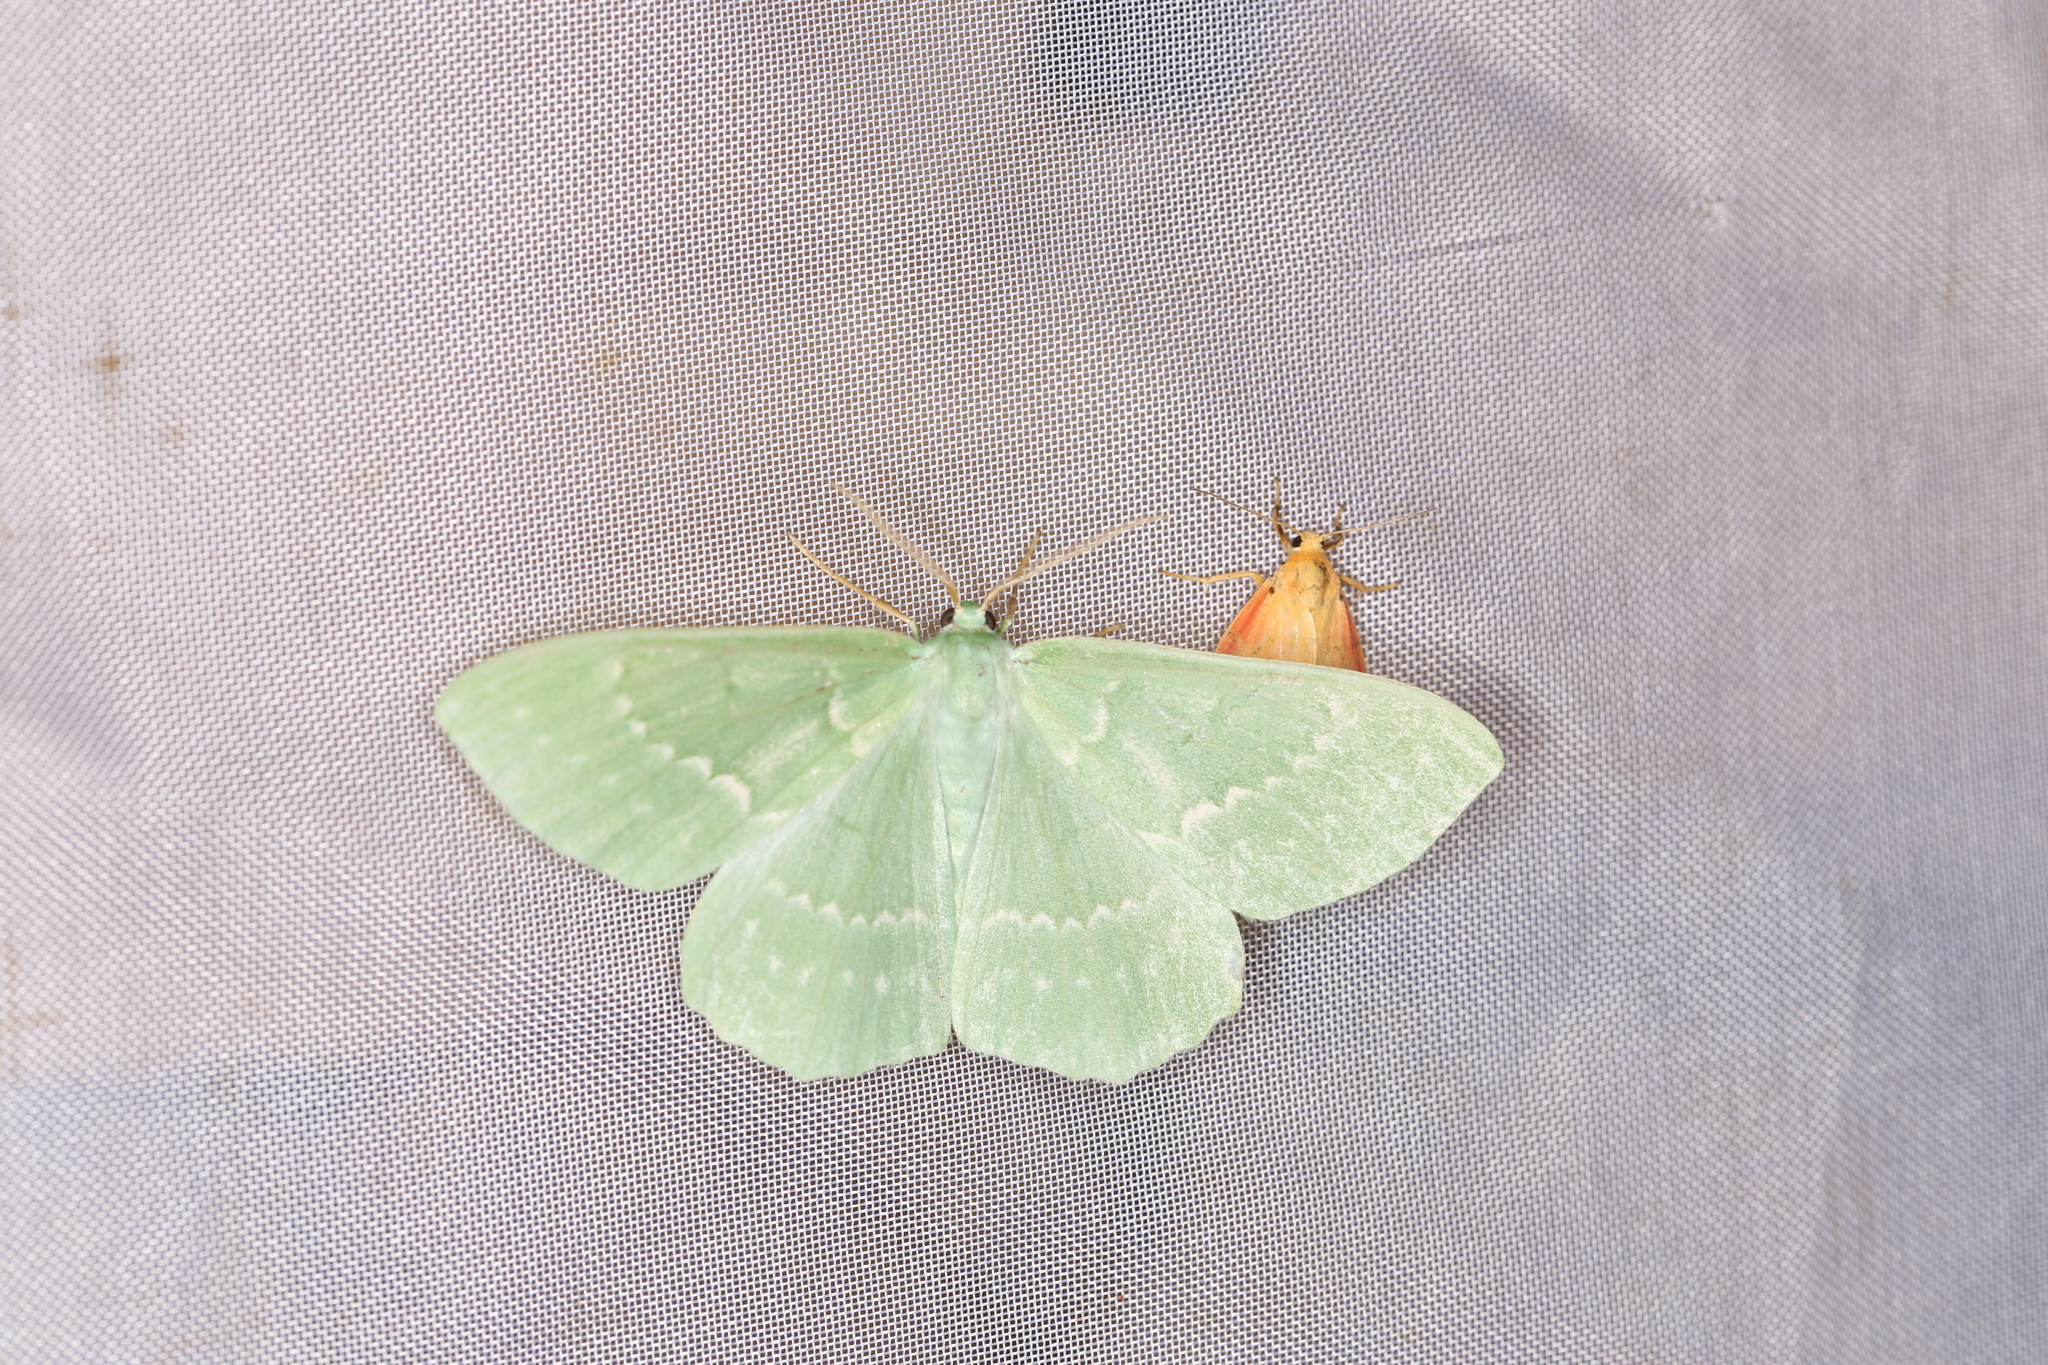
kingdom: Animalia
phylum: Arthropoda
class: Insecta
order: Lepidoptera
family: Geometridae
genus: Geometra
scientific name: Geometra papilionaria
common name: Large emerald
